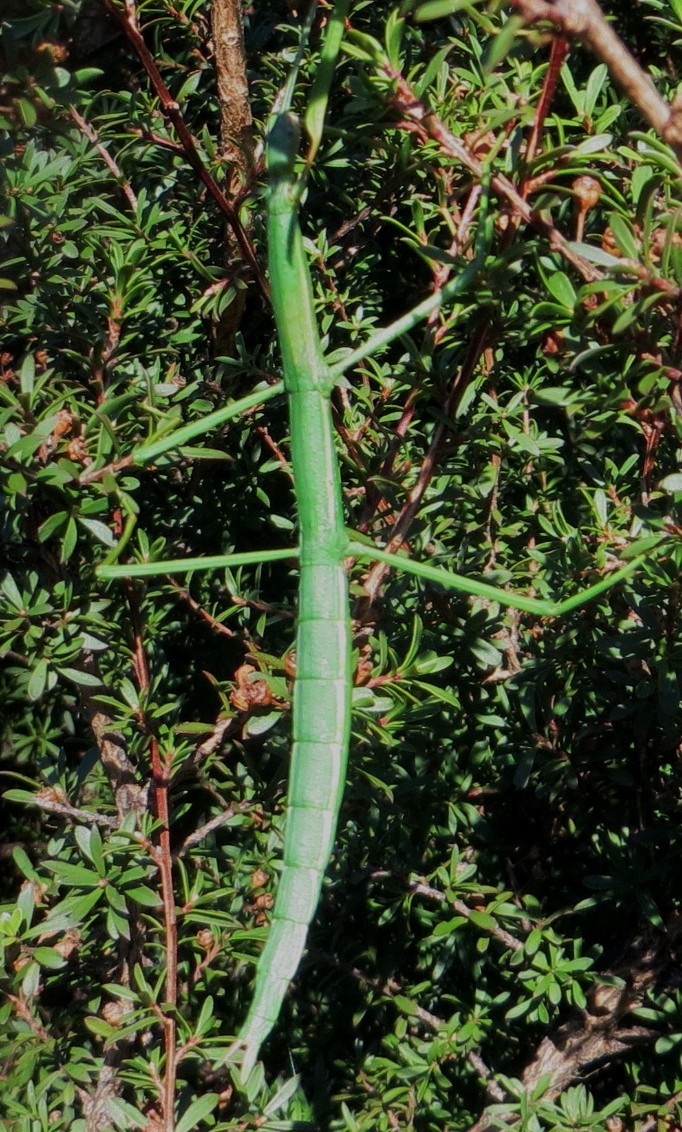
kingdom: Animalia
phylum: Arthropoda
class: Insecta
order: Phasmida
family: Phasmatidae
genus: Acanthoxyla
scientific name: Acanthoxyla inermis
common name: Unarmed stick insect
